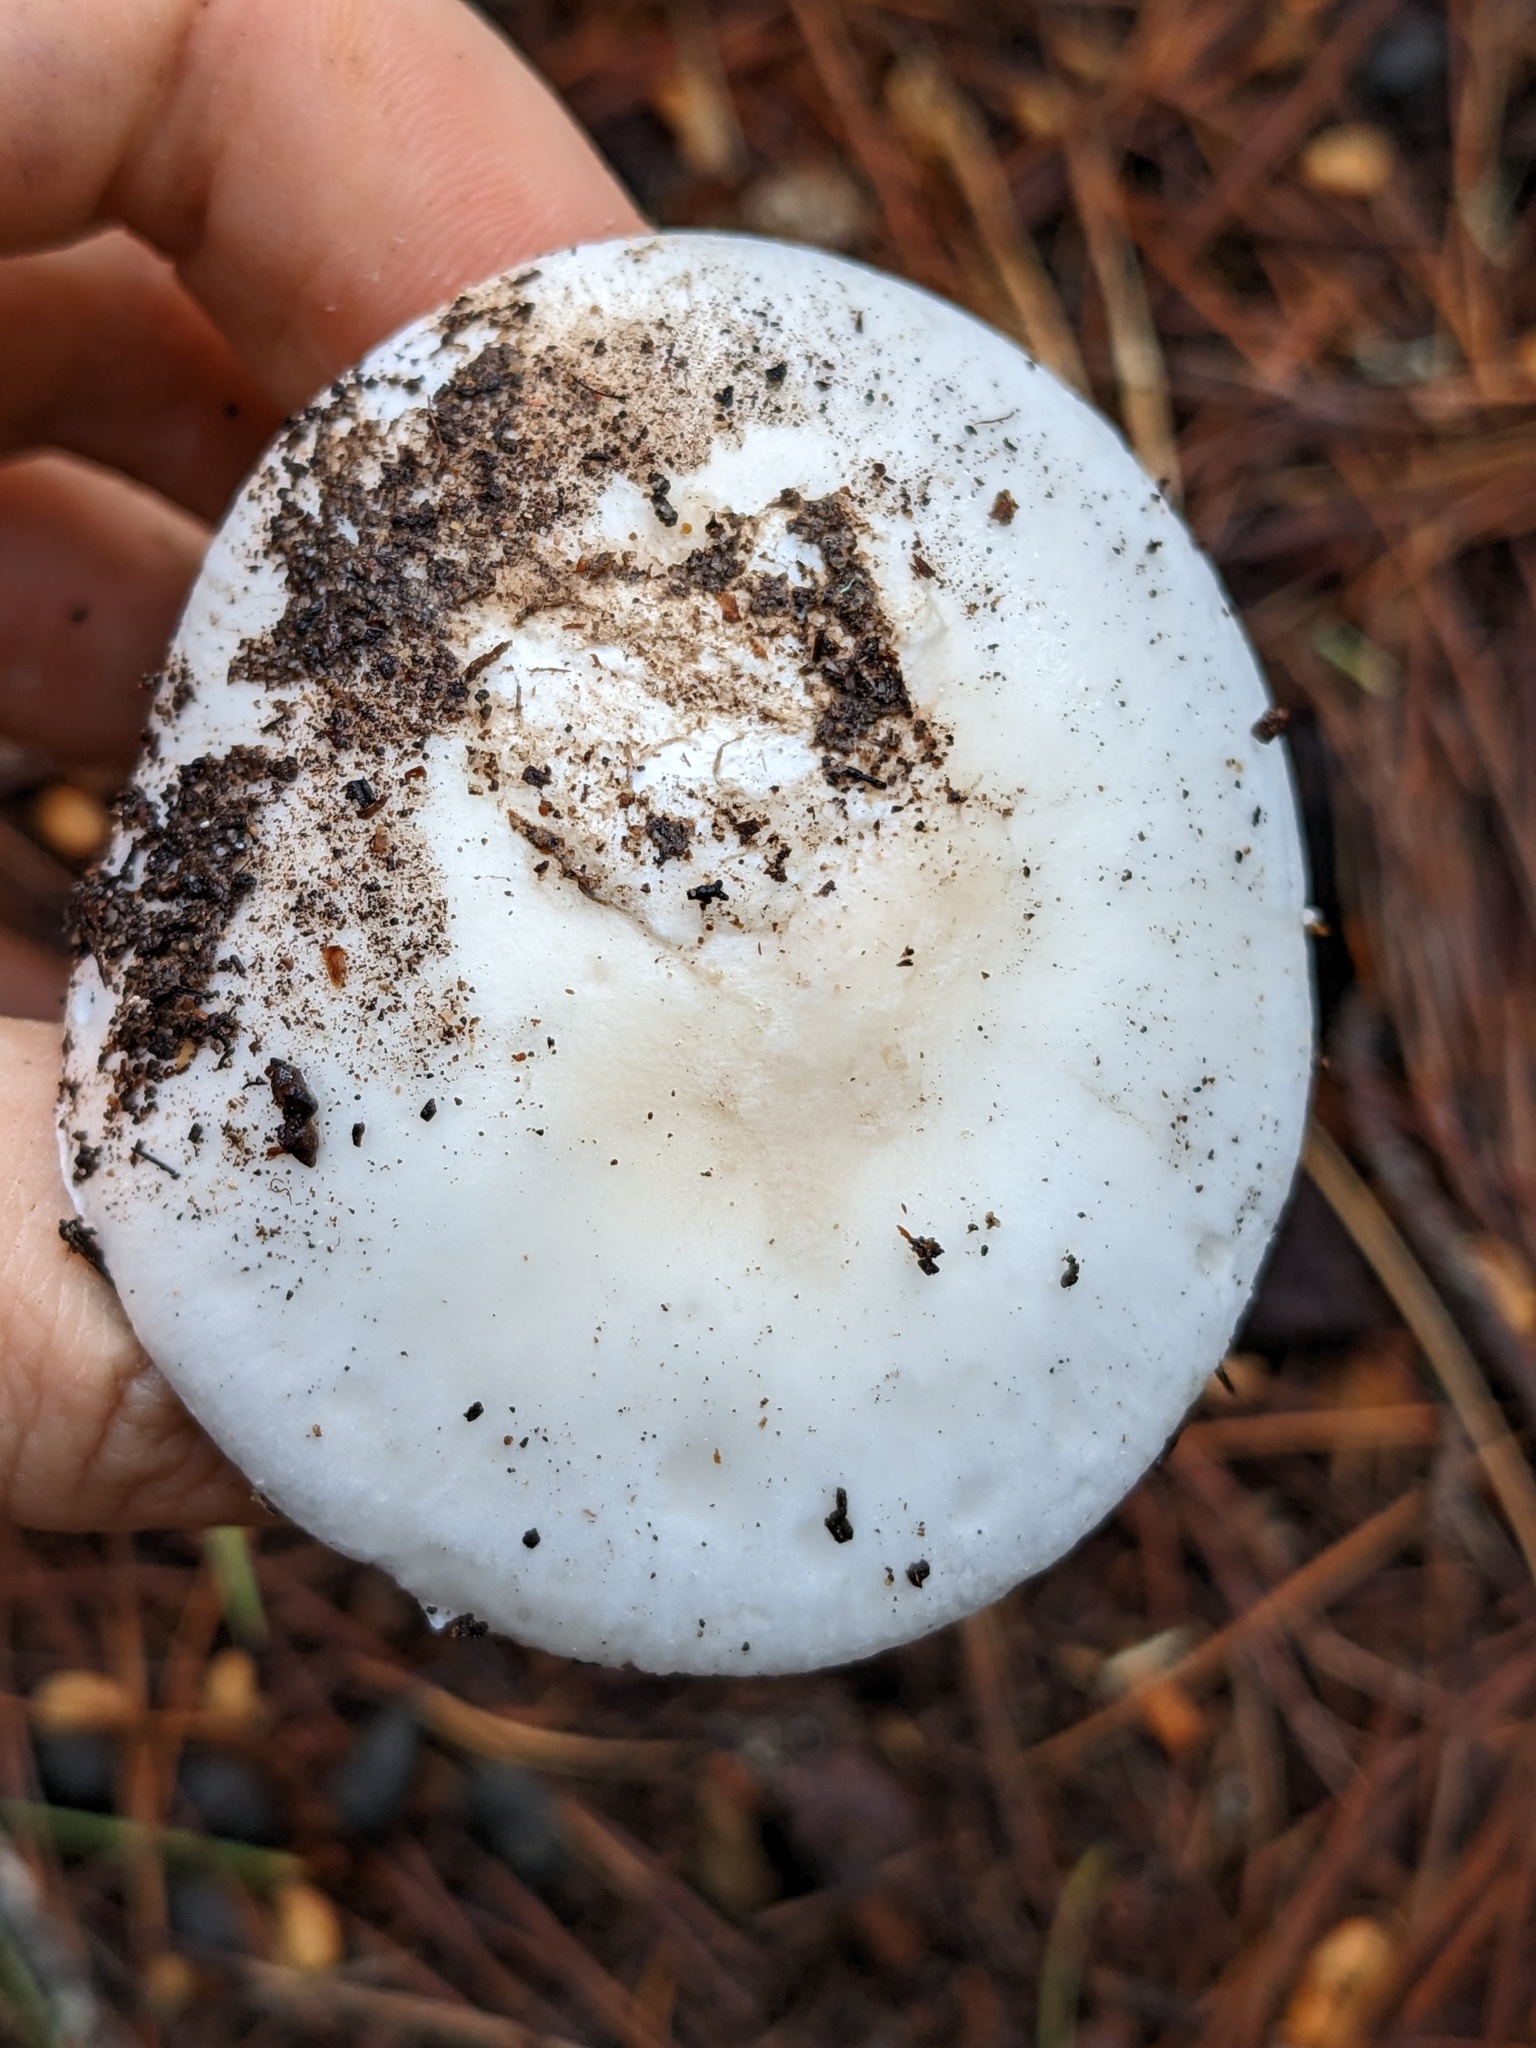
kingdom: Fungi
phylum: Basidiomycota
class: Agaricomycetes
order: Agaricales
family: Amanitaceae
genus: Amanita
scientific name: Amanita ocreata
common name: Western destroying angel
